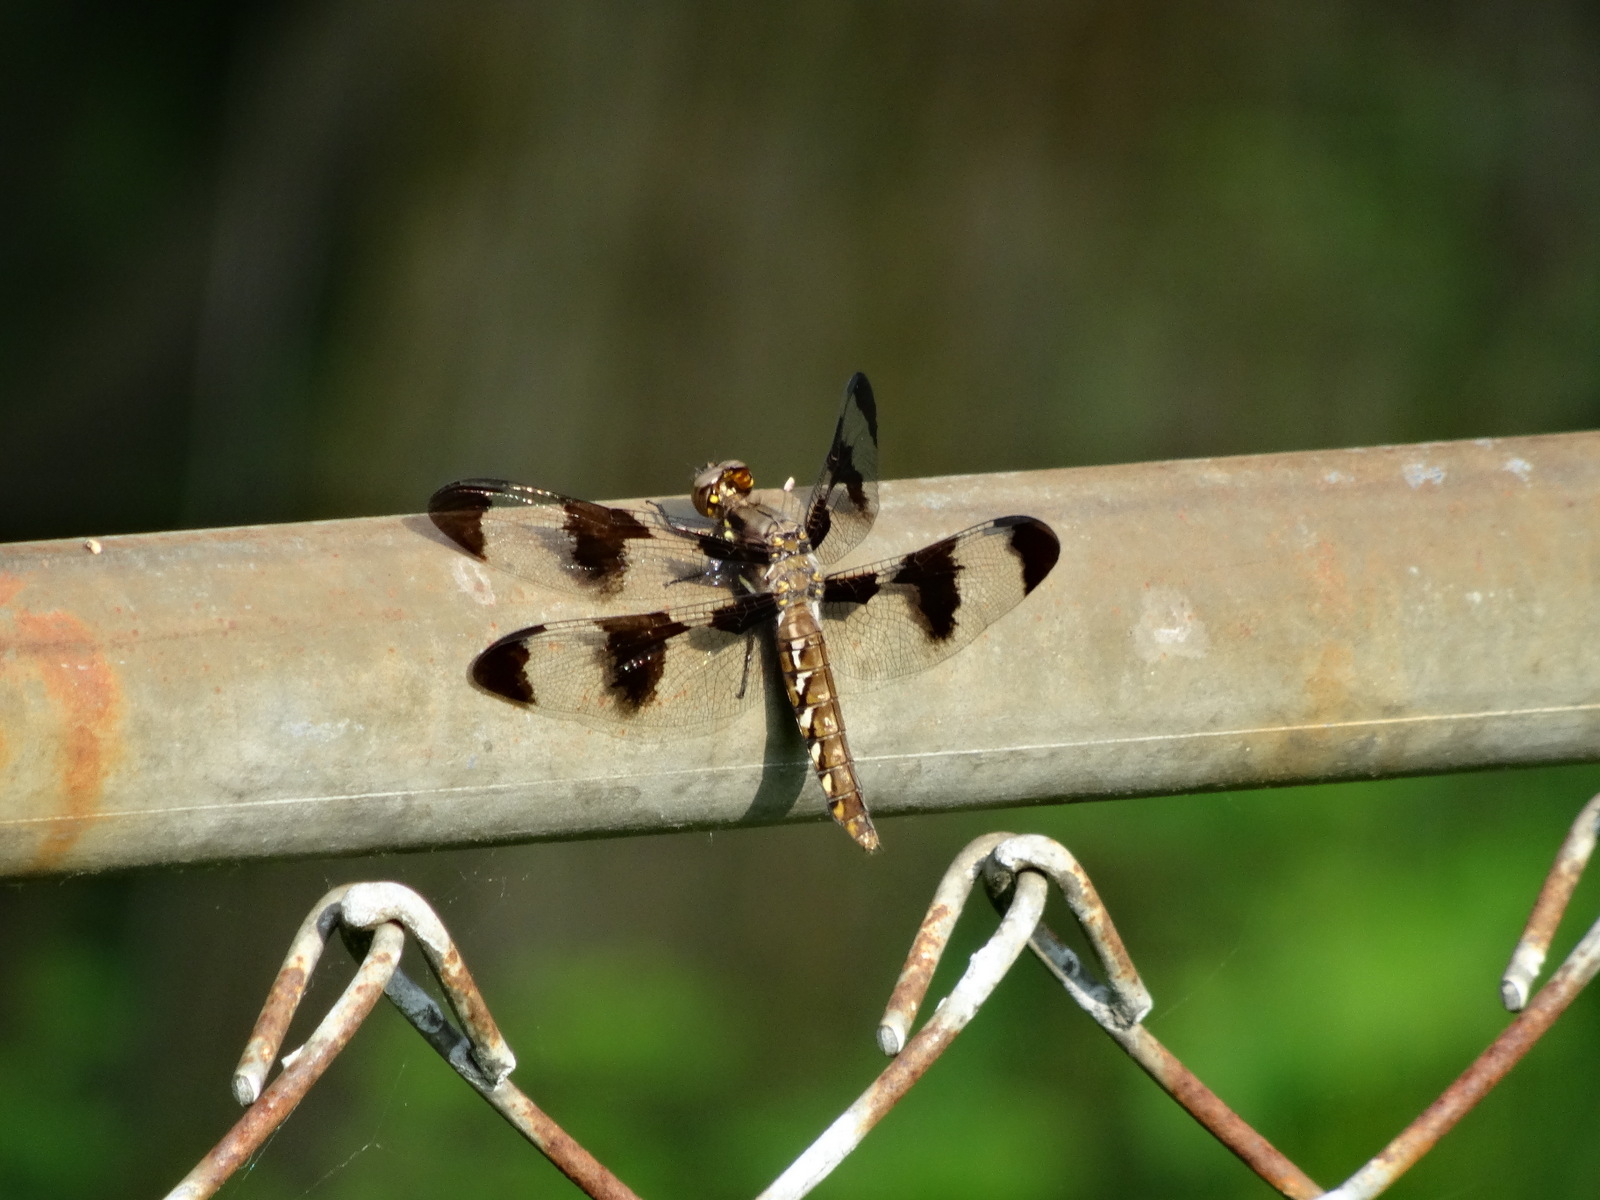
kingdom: Animalia
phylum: Arthropoda
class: Insecta
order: Odonata
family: Libellulidae
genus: Plathemis
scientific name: Plathemis lydia
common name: Common whitetail
